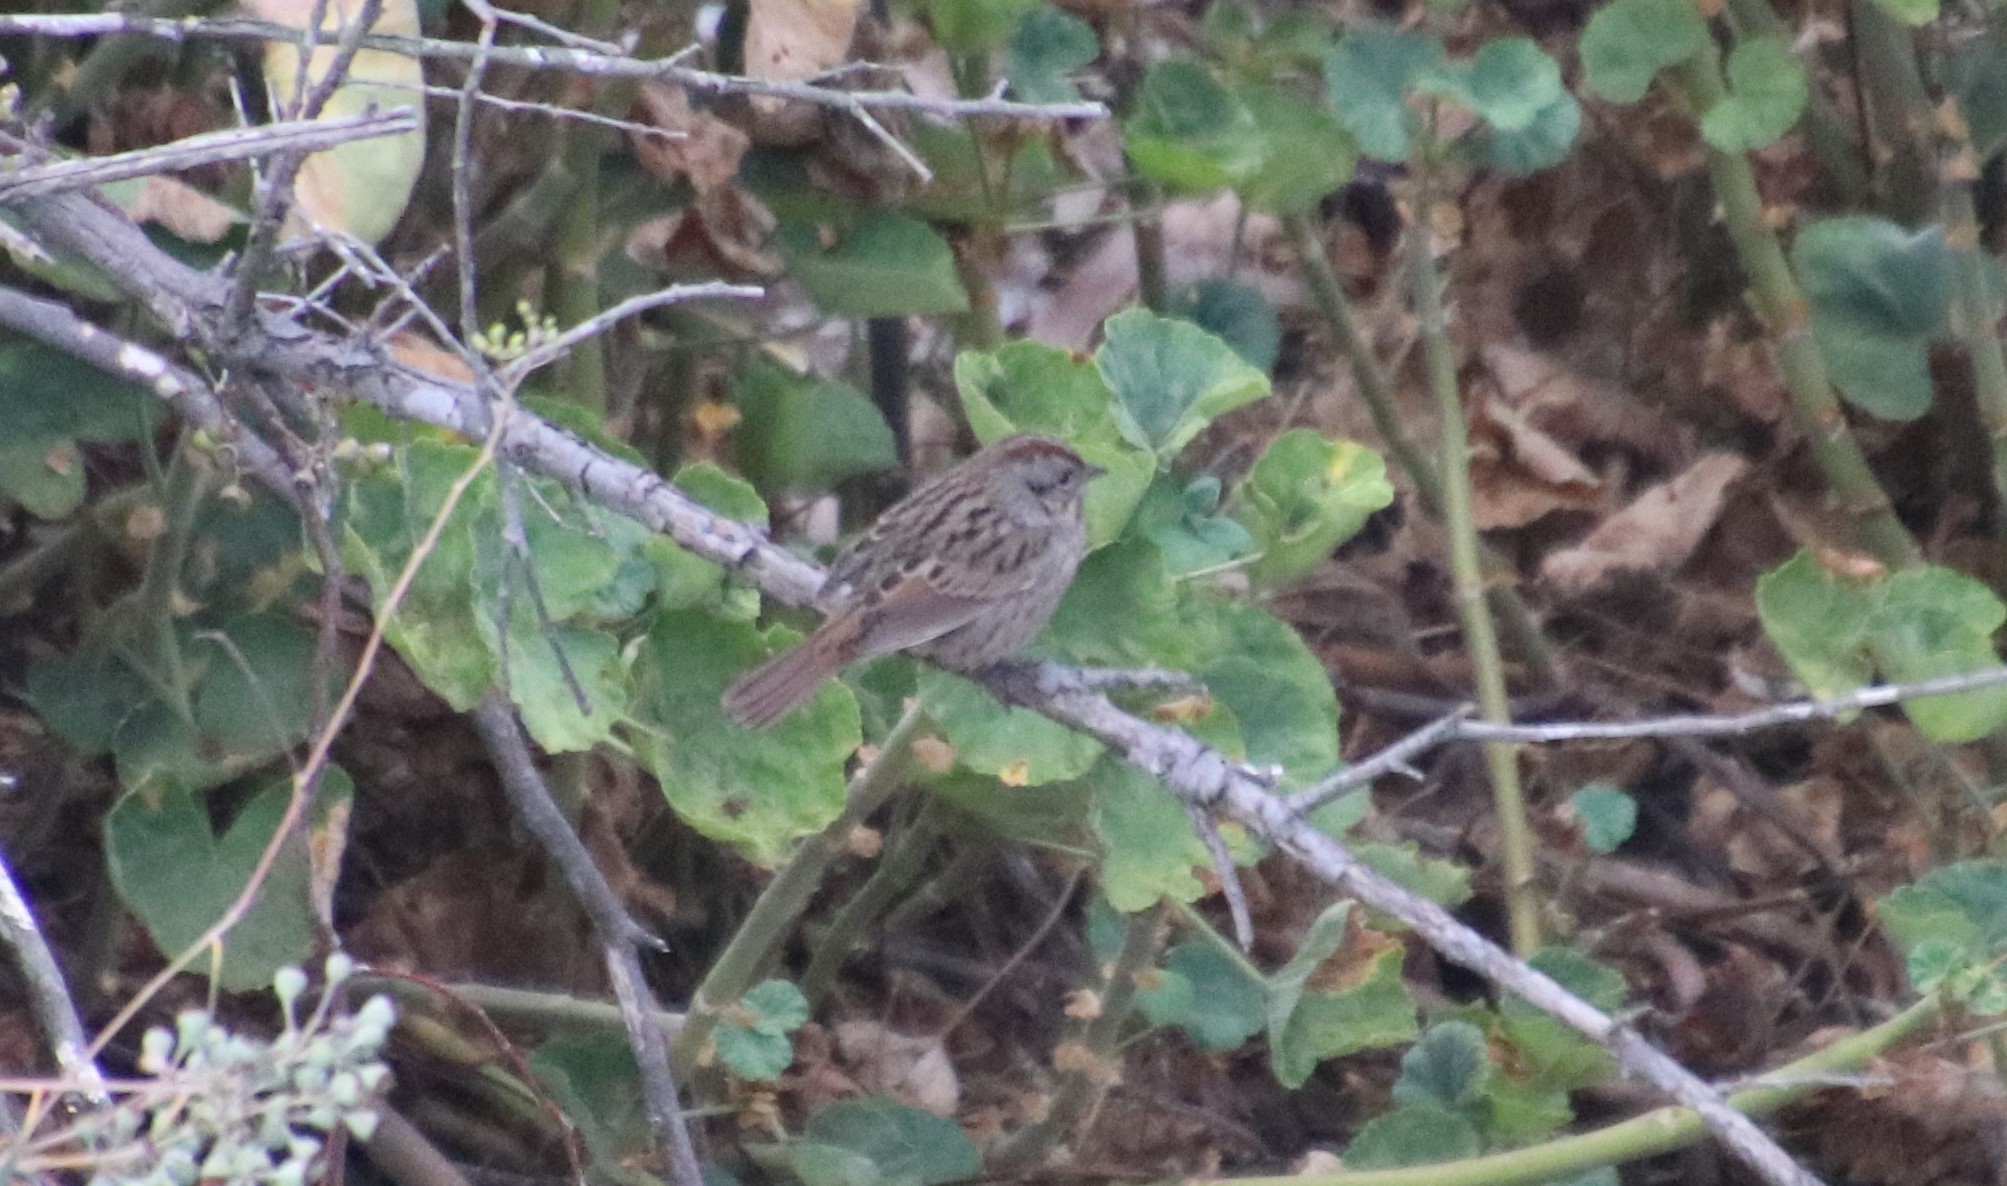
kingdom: Animalia
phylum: Chordata
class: Aves
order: Passeriformes
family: Passerellidae
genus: Melospiza
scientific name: Melospiza lincolnii
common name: Lincoln's sparrow
